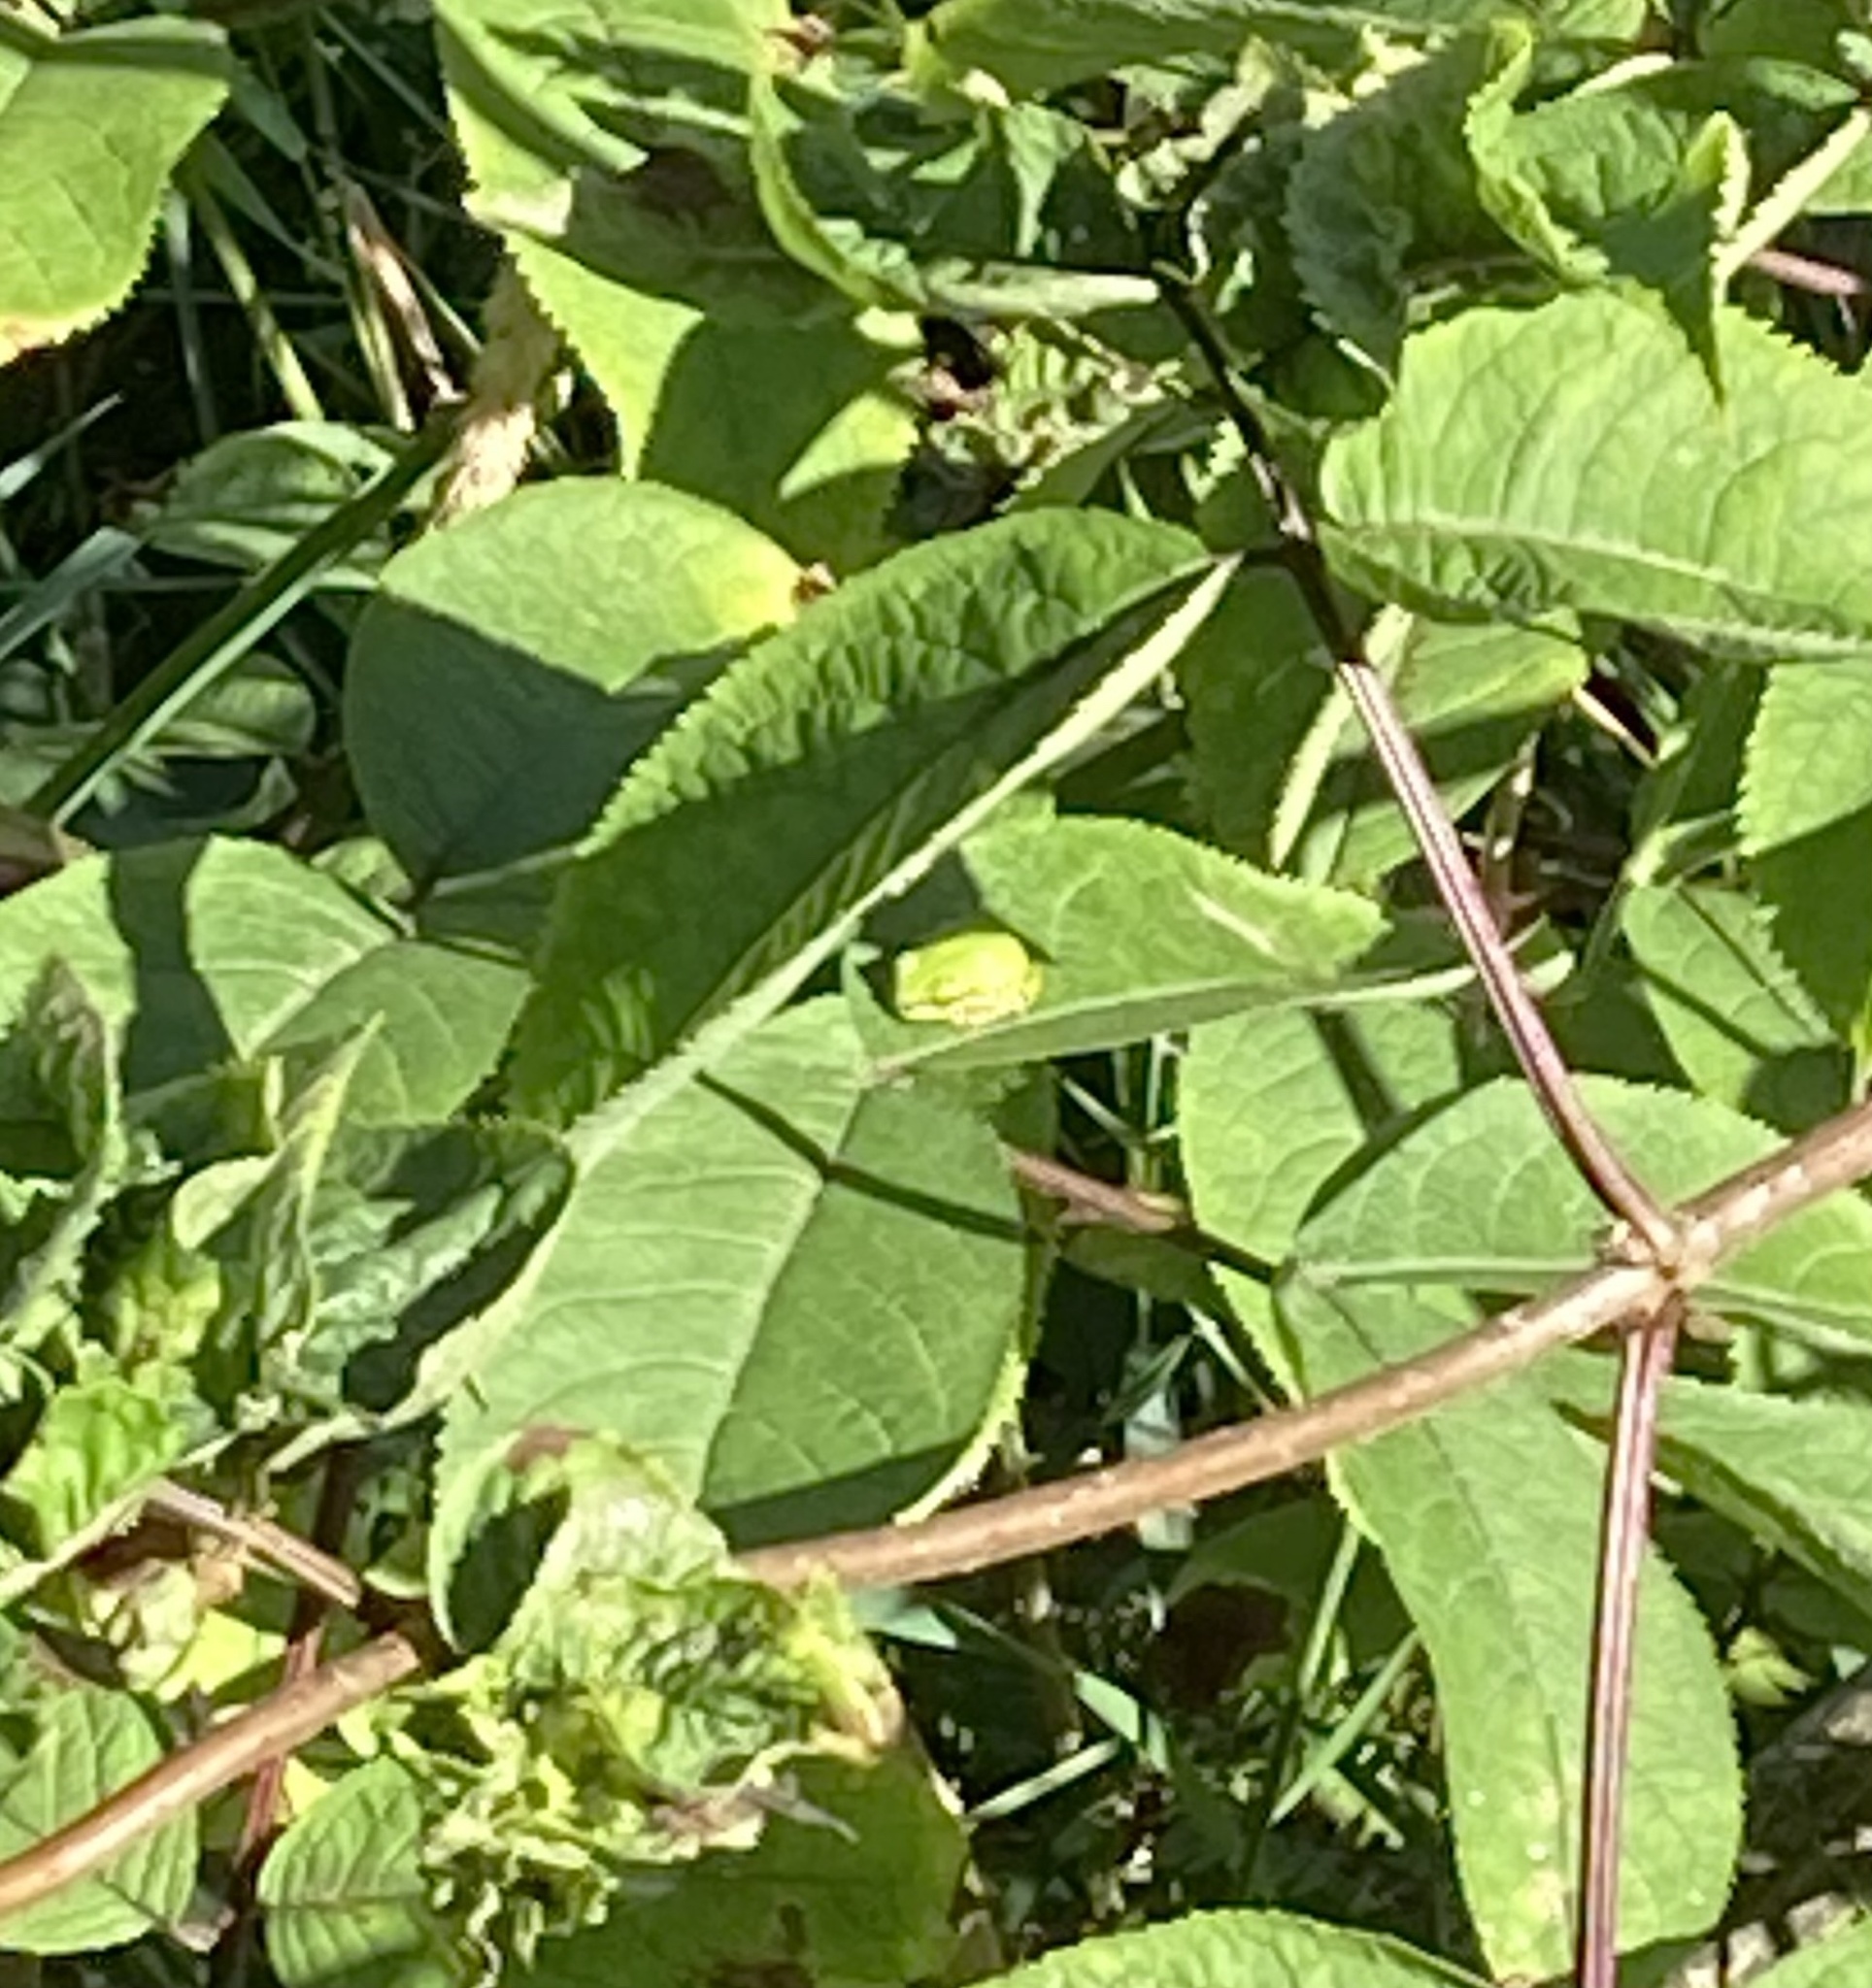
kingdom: Animalia
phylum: Chordata
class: Amphibia
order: Anura
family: Hylidae
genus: Pseudacris
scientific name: Pseudacris regilla
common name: Pacific chorus frog
